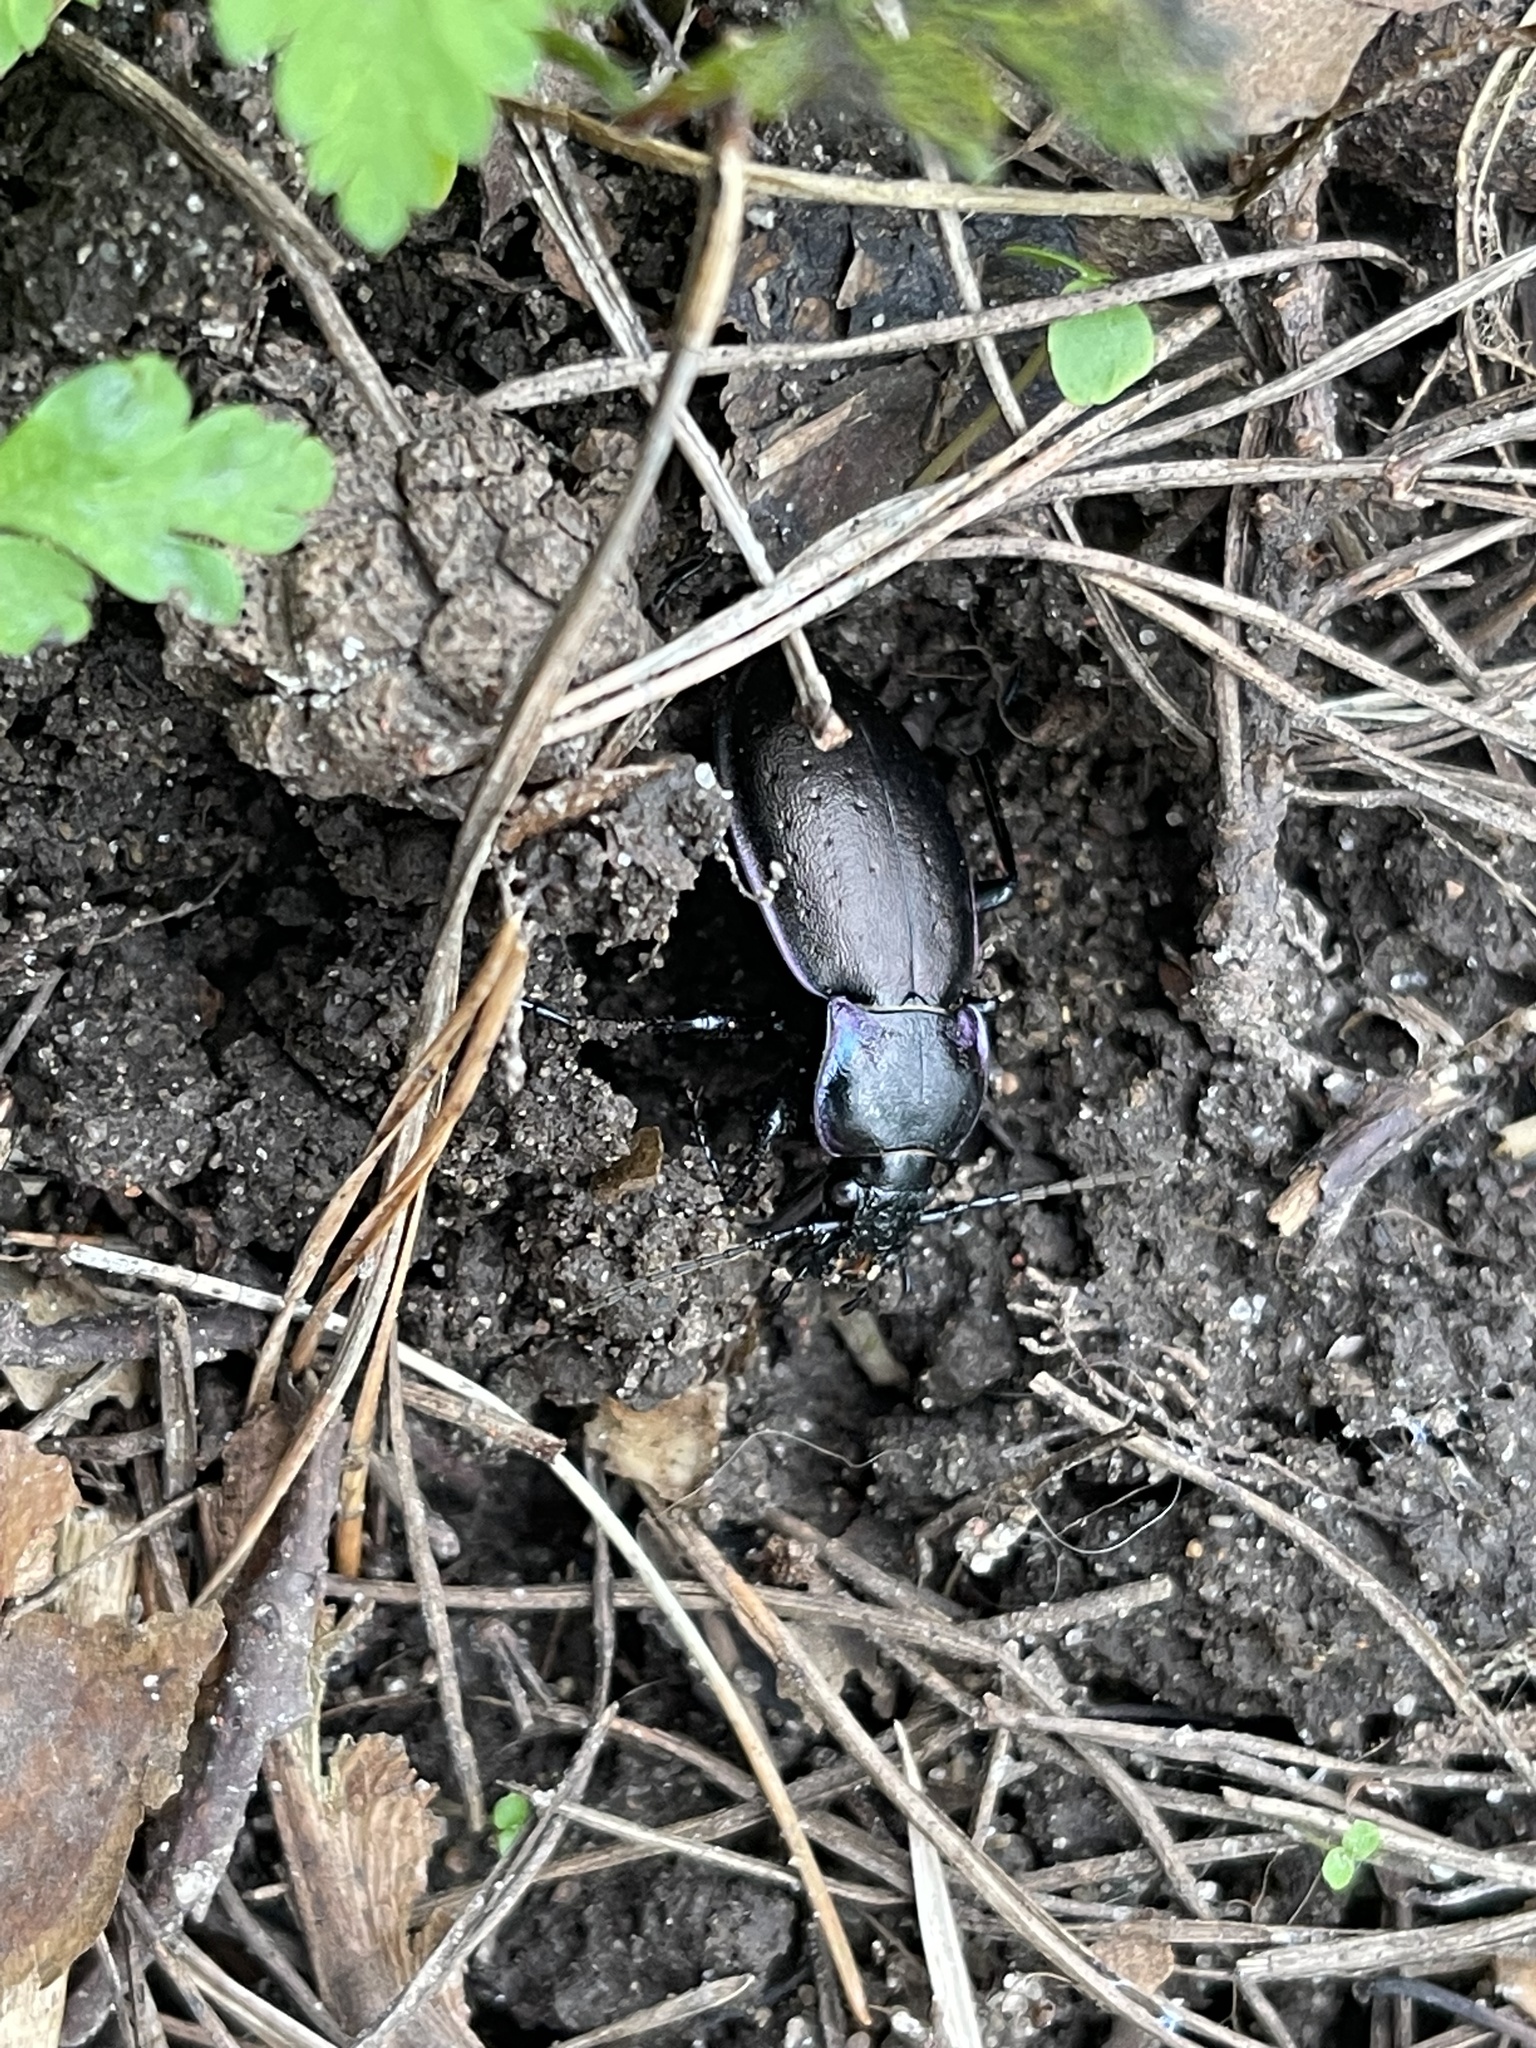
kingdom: Animalia
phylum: Arthropoda
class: Insecta
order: Coleoptera
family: Carabidae
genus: Carabus
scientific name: Carabus nemoralis
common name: European ground beetle
